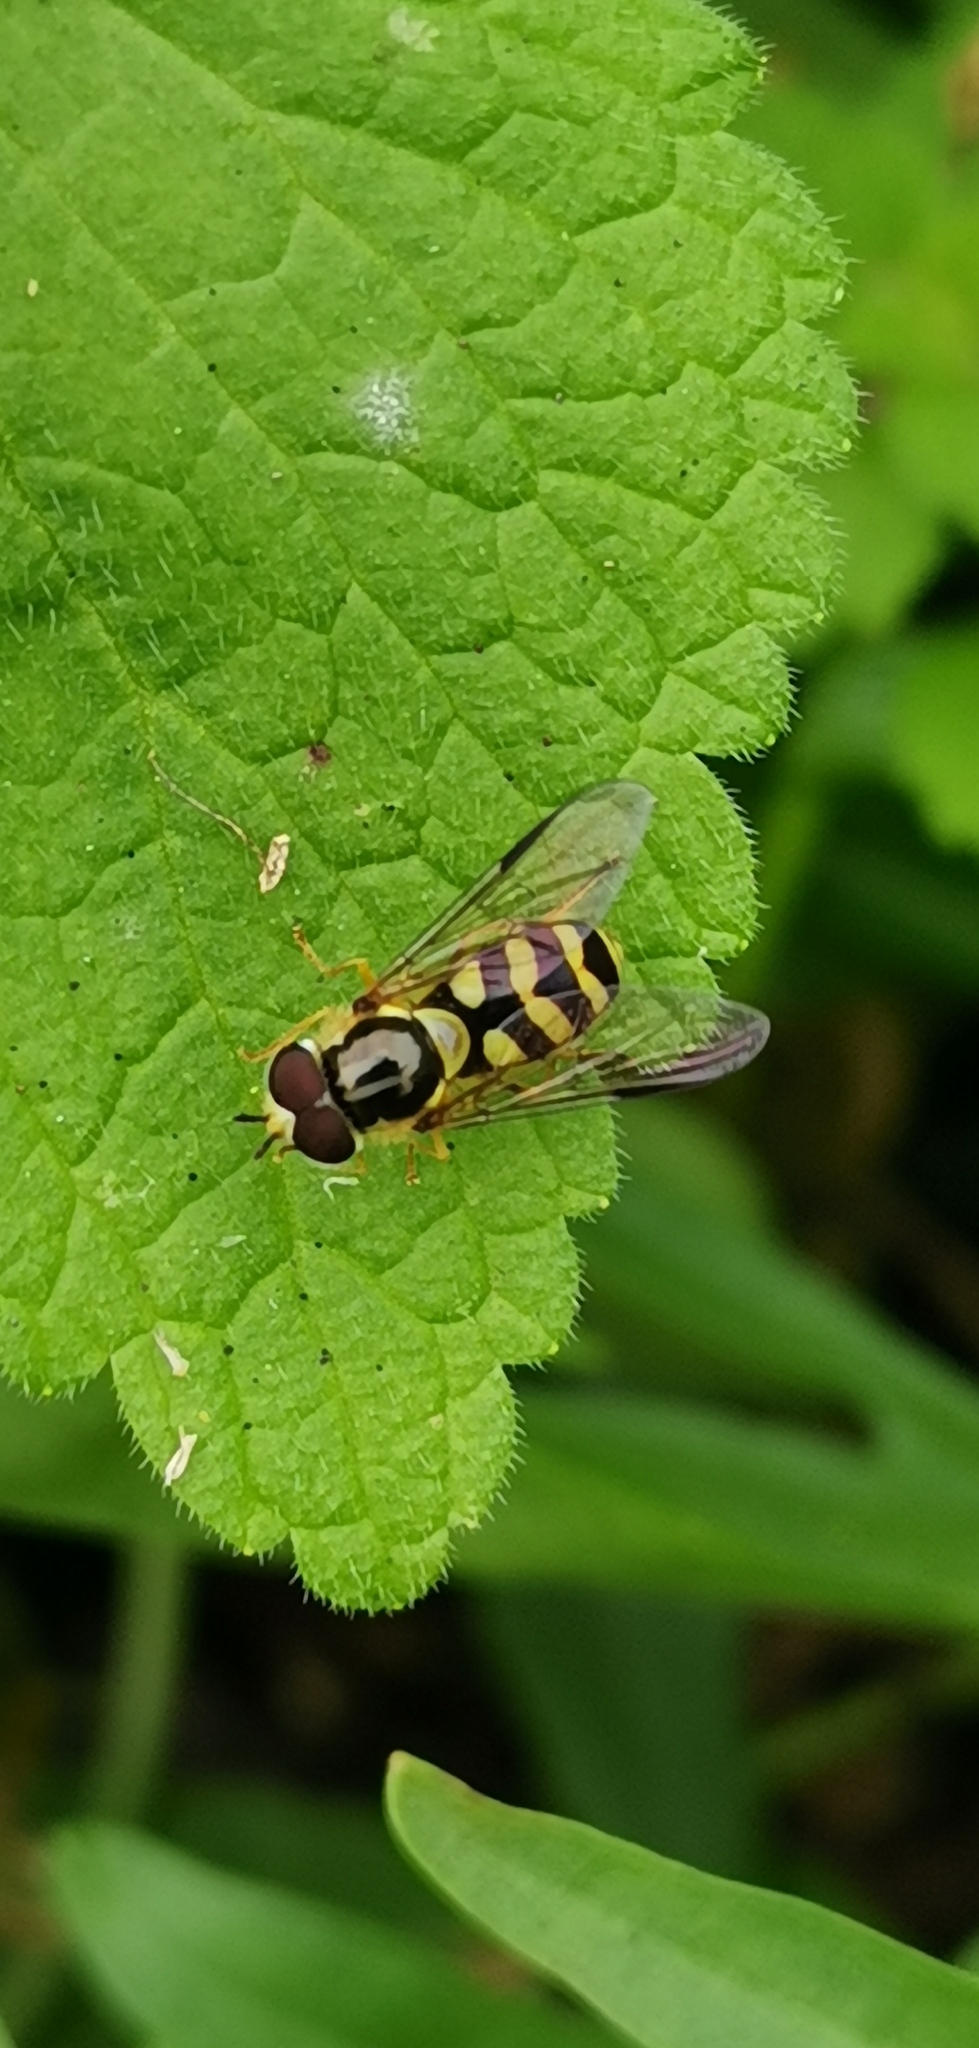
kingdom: Animalia
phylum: Arthropoda
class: Insecta
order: Diptera
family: Syrphidae
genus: Dasysyrphus
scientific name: Dasysyrphus albostriatus
